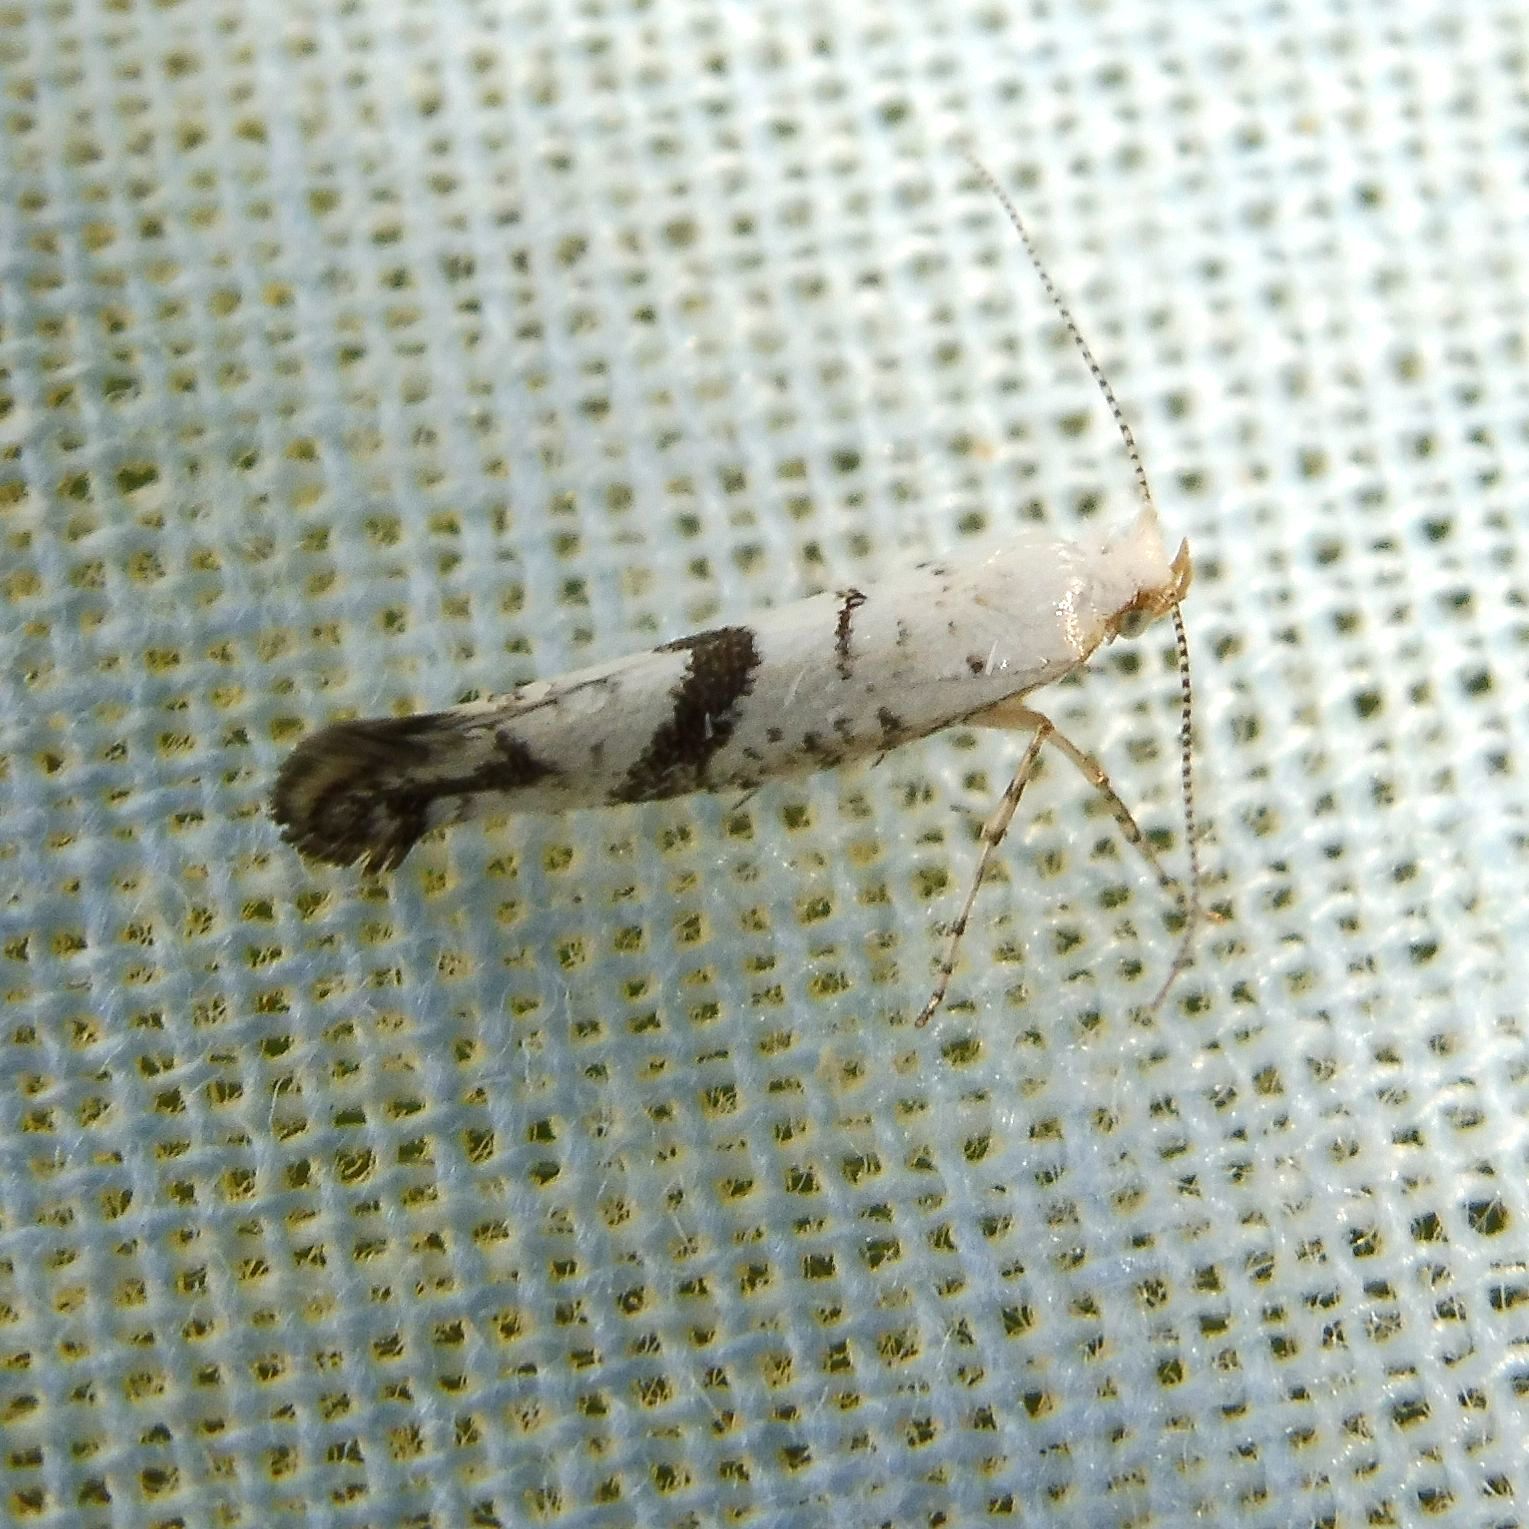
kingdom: Animalia
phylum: Arthropoda
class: Insecta
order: Lepidoptera
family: Argyresthiidae
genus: Argyresthia
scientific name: Argyresthia curvella
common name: Brindled argent
